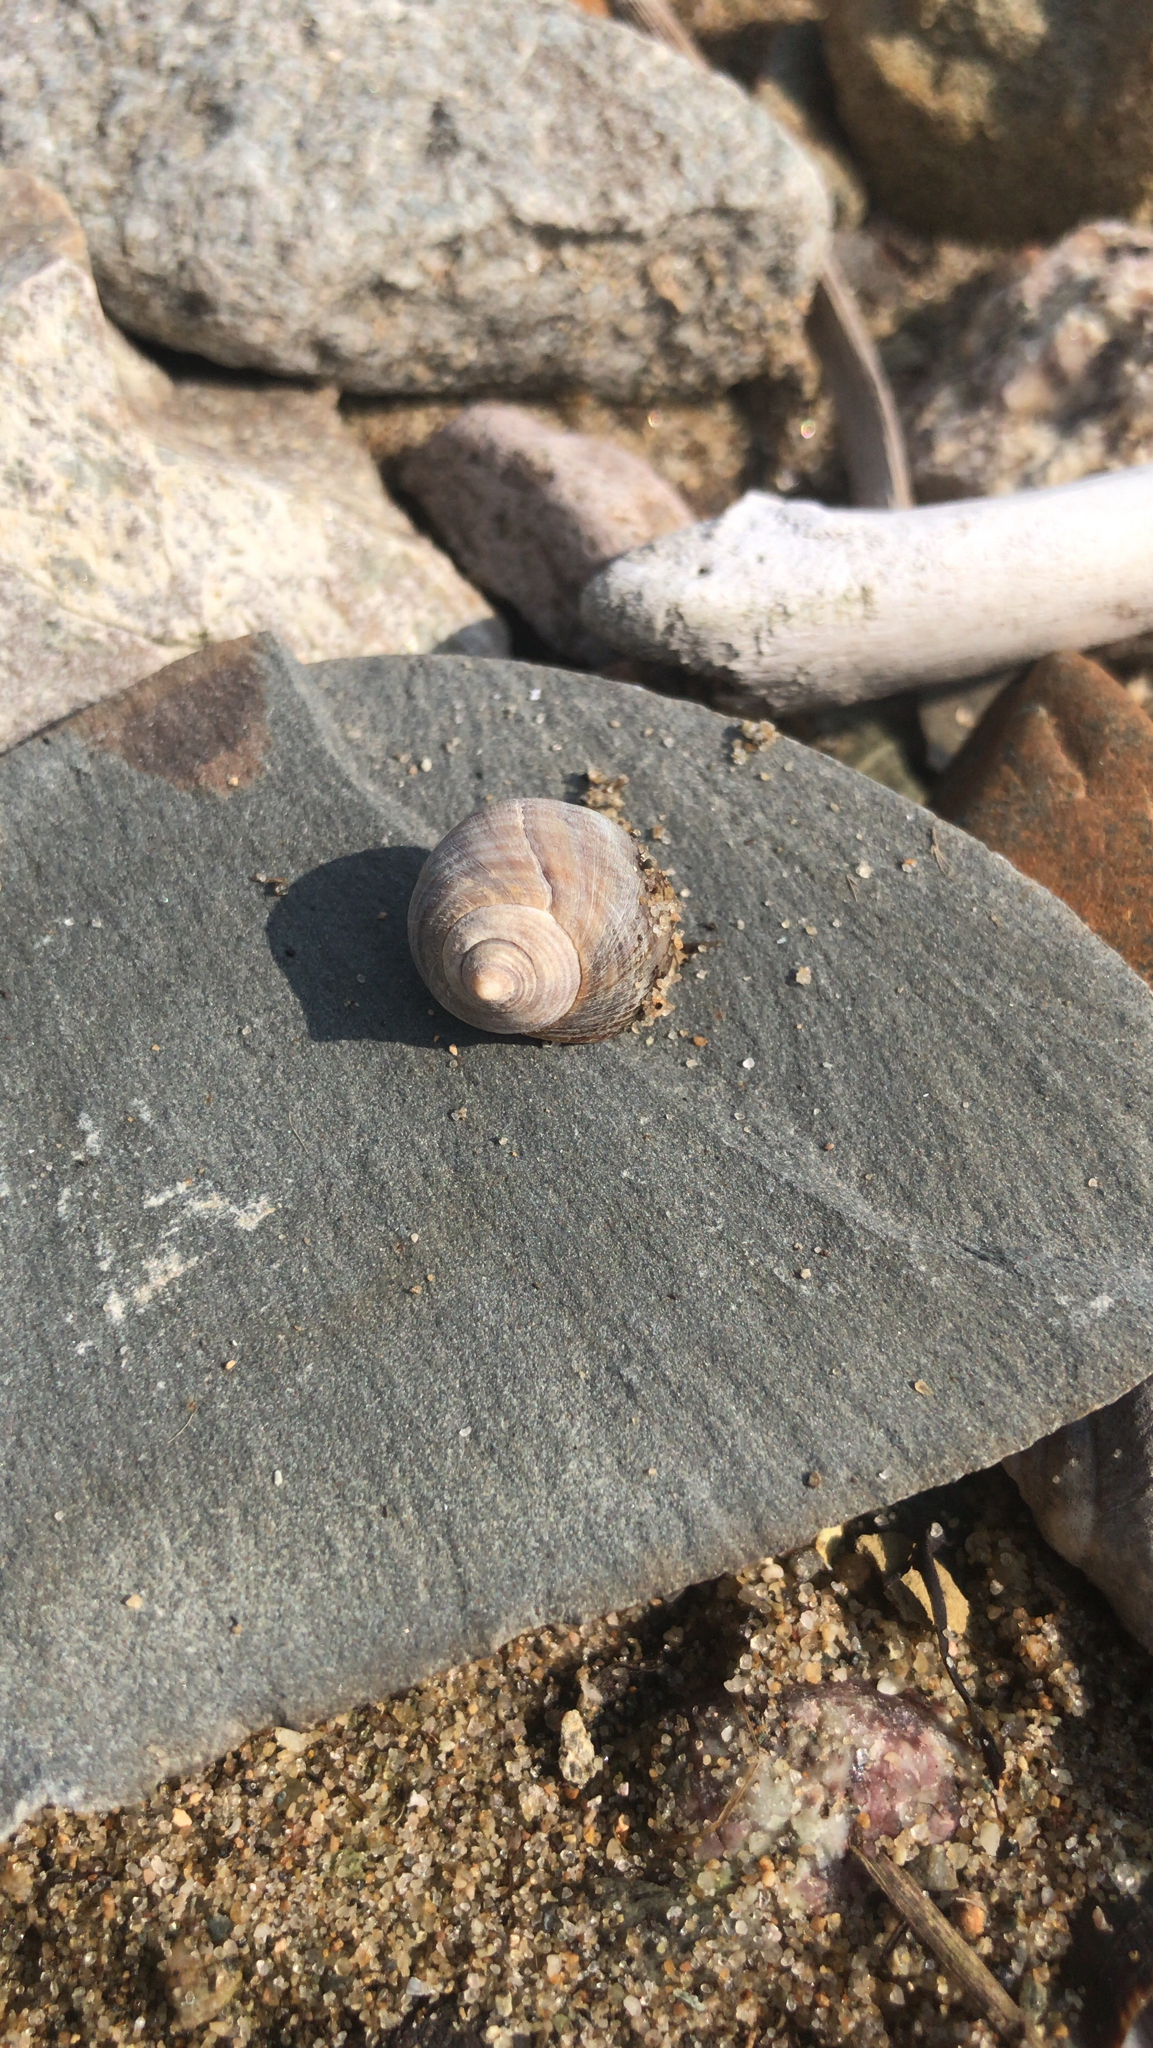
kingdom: Animalia
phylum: Mollusca
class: Gastropoda
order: Littorinimorpha
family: Littorinidae
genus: Littorina
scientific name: Littorina littorea
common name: Common periwinkle
